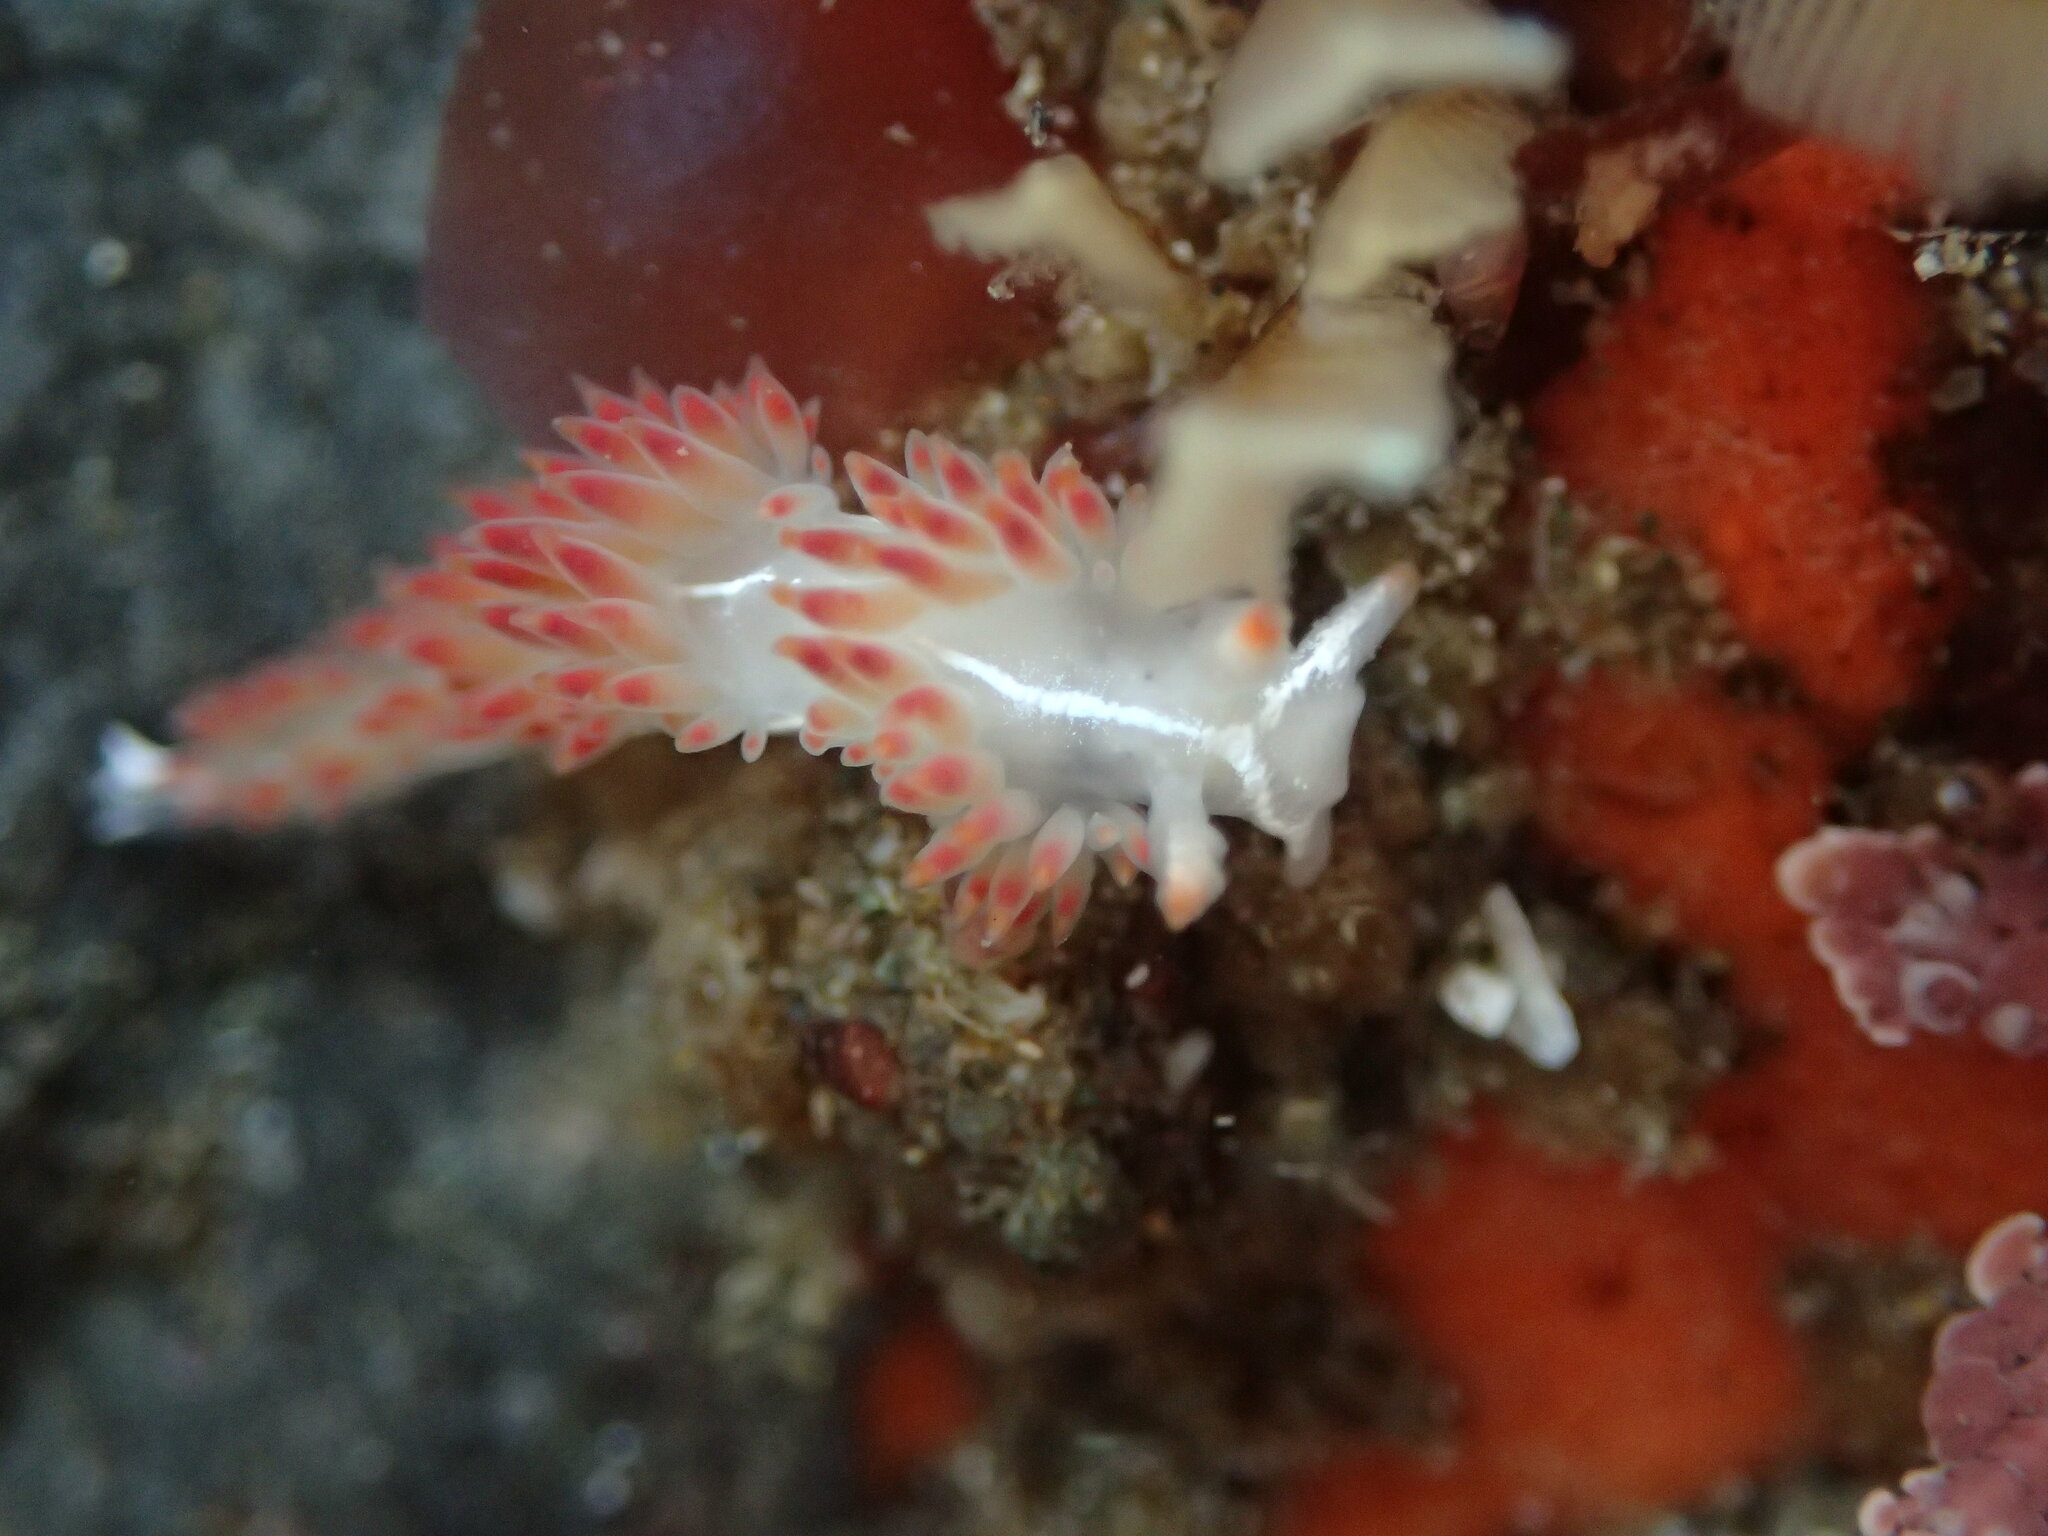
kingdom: Animalia
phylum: Mollusca
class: Gastropoda
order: Nudibranchia
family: Coryphellidae
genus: Coryphella
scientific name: Coryphella trilineata
